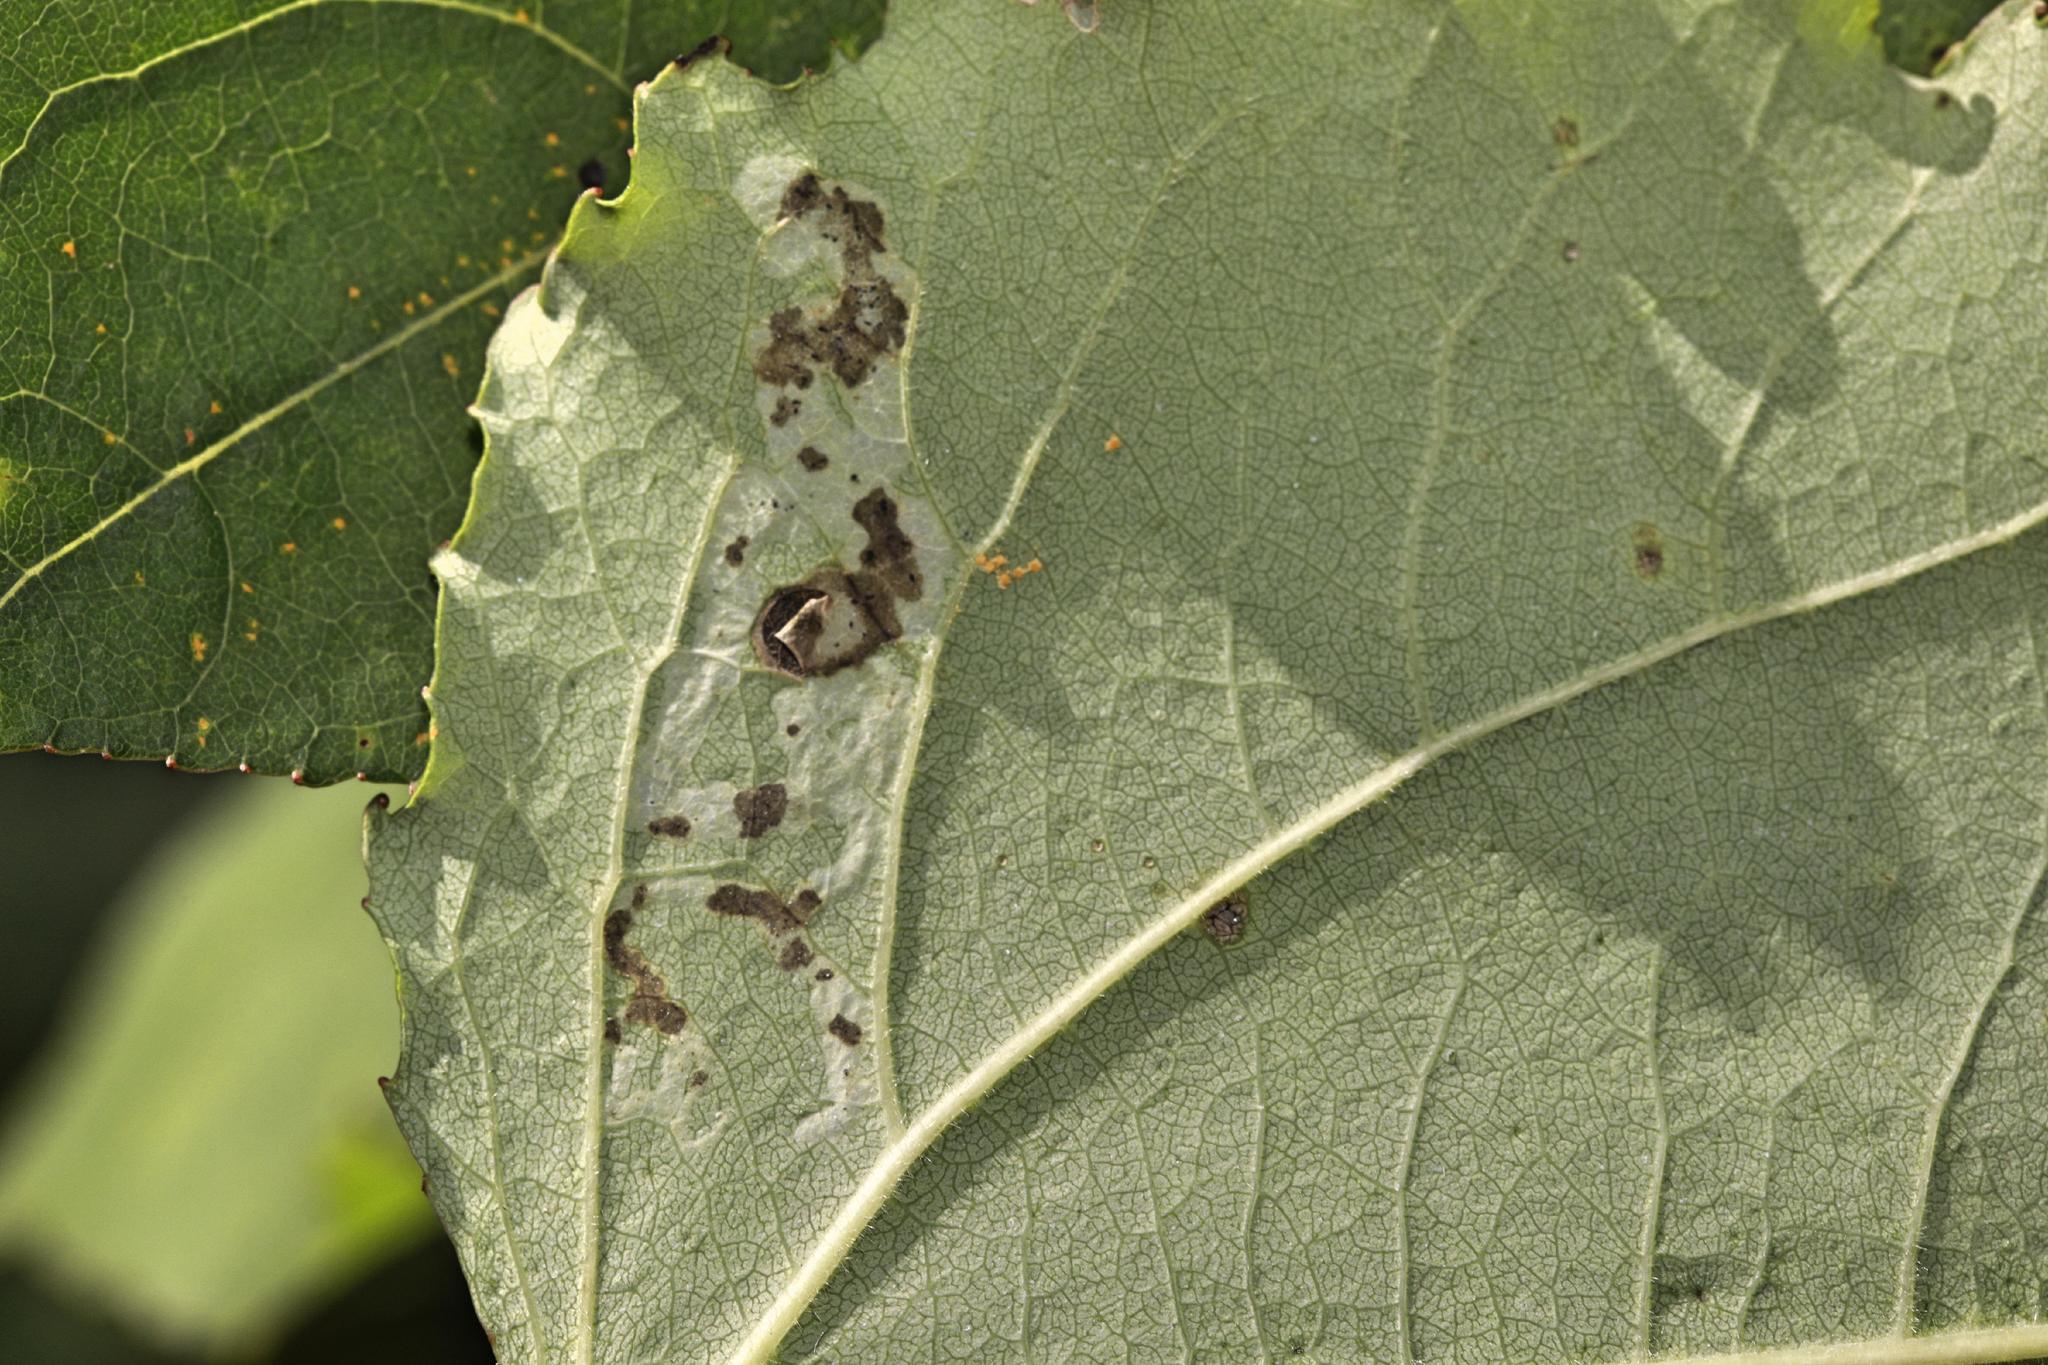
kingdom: Animalia
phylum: Arthropoda
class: Insecta
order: Diptera
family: Agromyzidae
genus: Aulagromyza
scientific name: Aulagromyza tremulae
